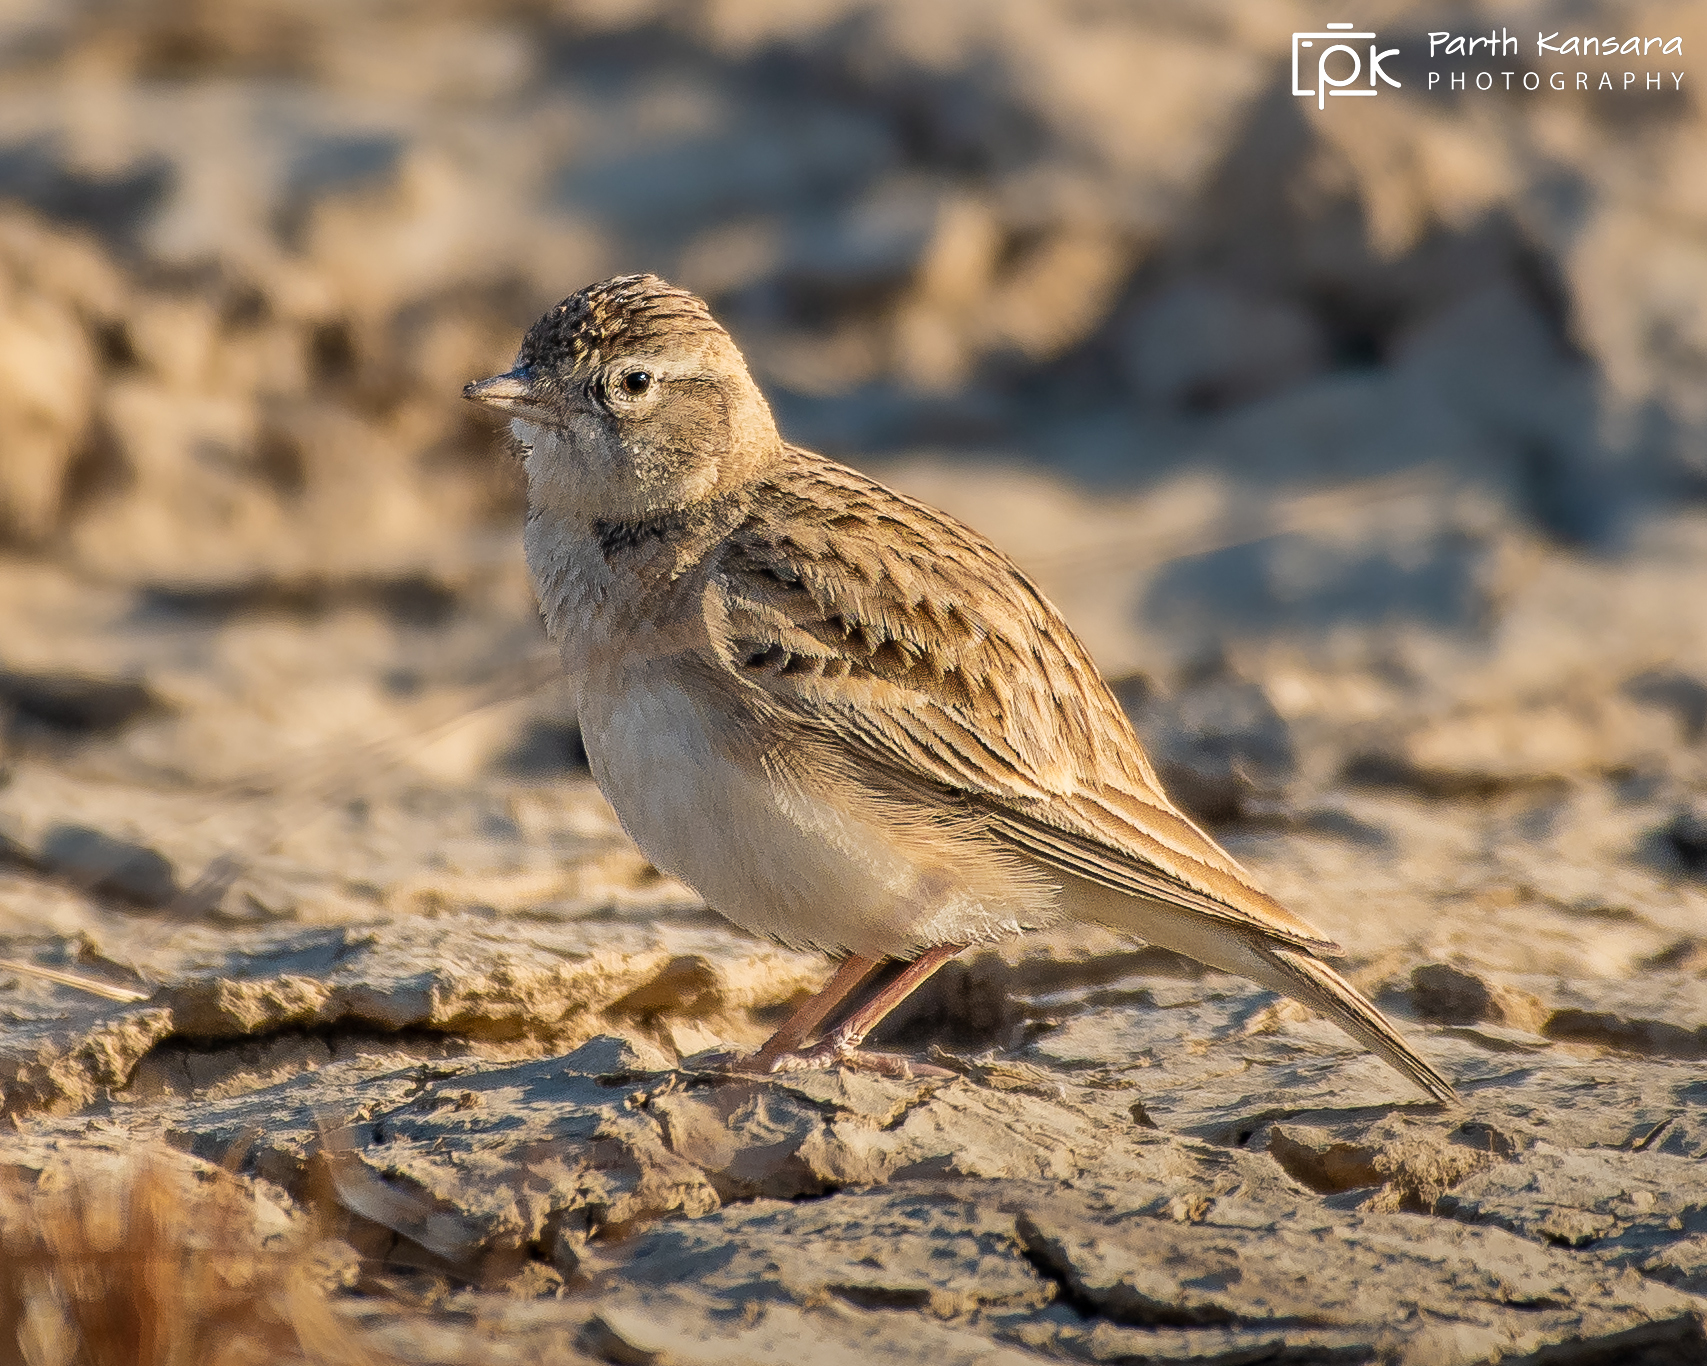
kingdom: Animalia
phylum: Chordata
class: Aves
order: Passeriformes
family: Alaudidae
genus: Calandrella
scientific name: Calandrella brachydactyla
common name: Greater short-toed lark
